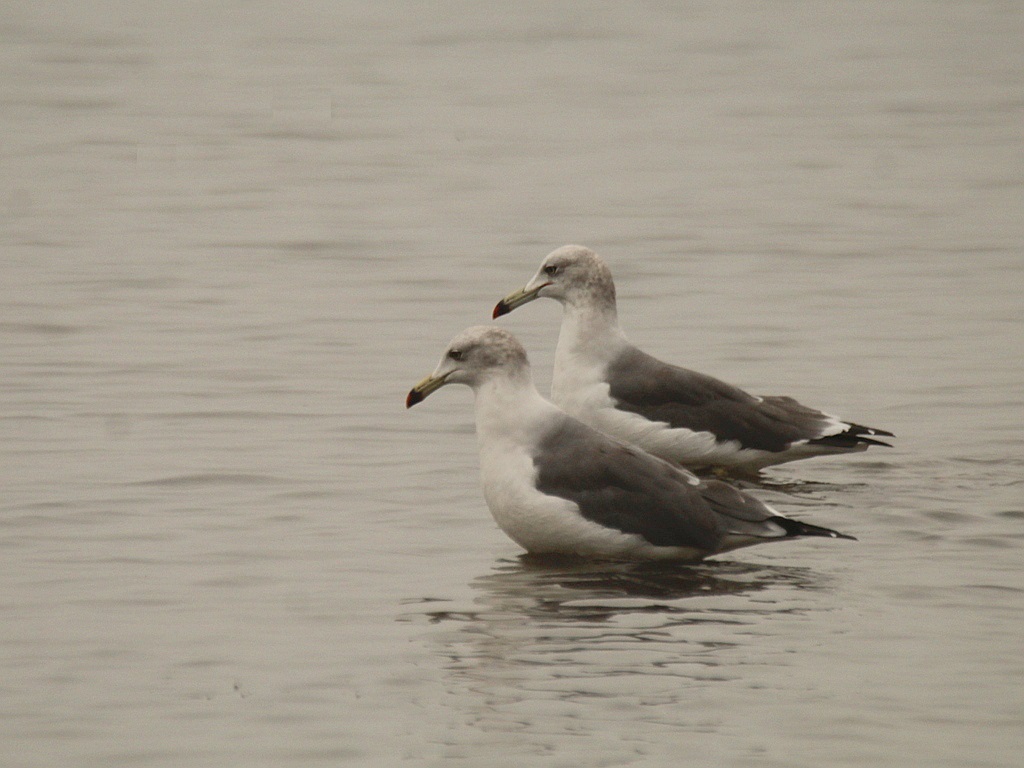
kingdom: Animalia
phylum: Chordata
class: Aves
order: Charadriiformes
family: Laridae
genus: Larus
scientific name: Larus crassirostris
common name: Black-tailed gull
